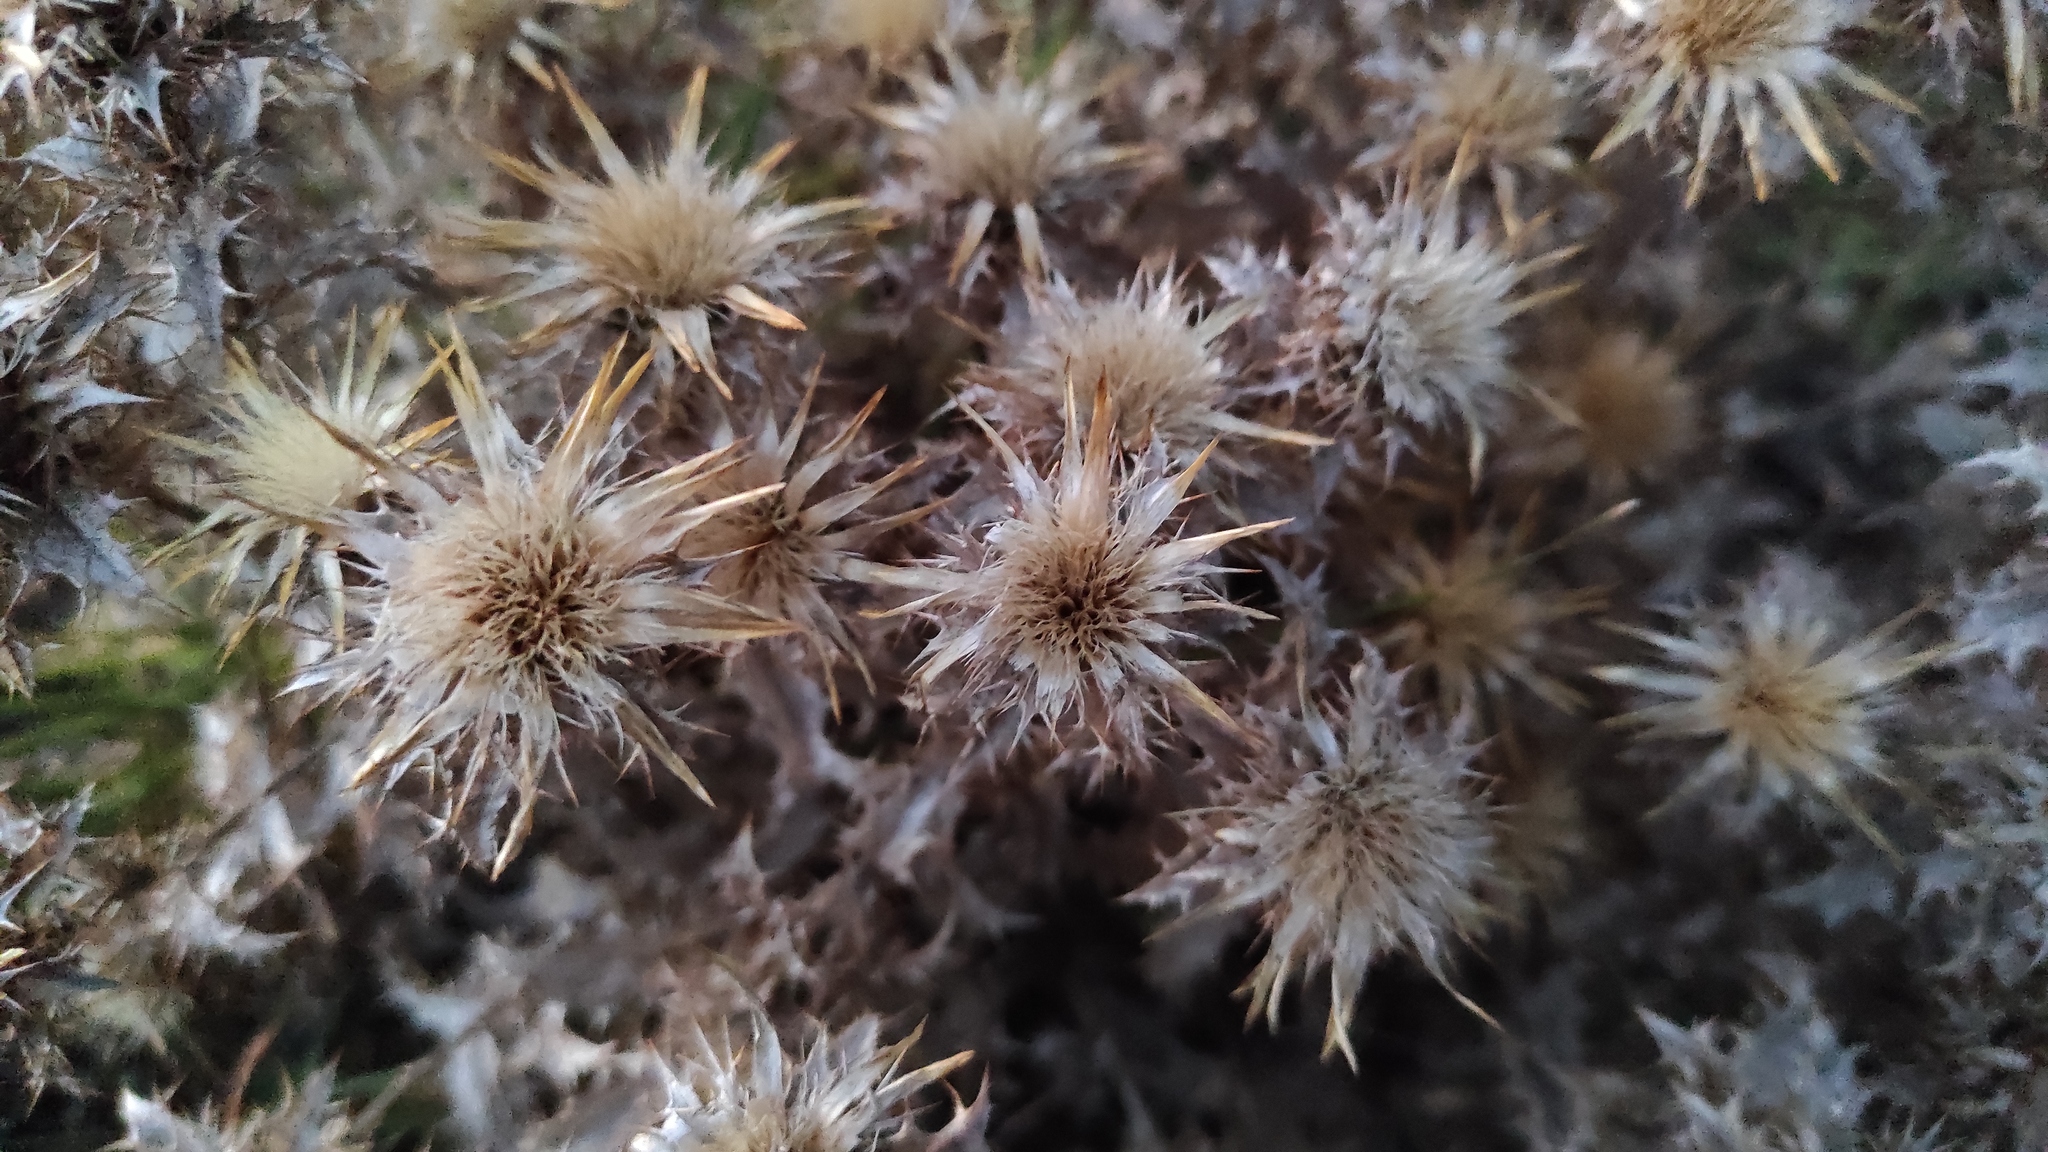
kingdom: Plantae
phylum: Tracheophyta
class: Magnoliopsida
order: Asterales
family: Asteraceae
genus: Carlina
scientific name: Carlina hispanica
